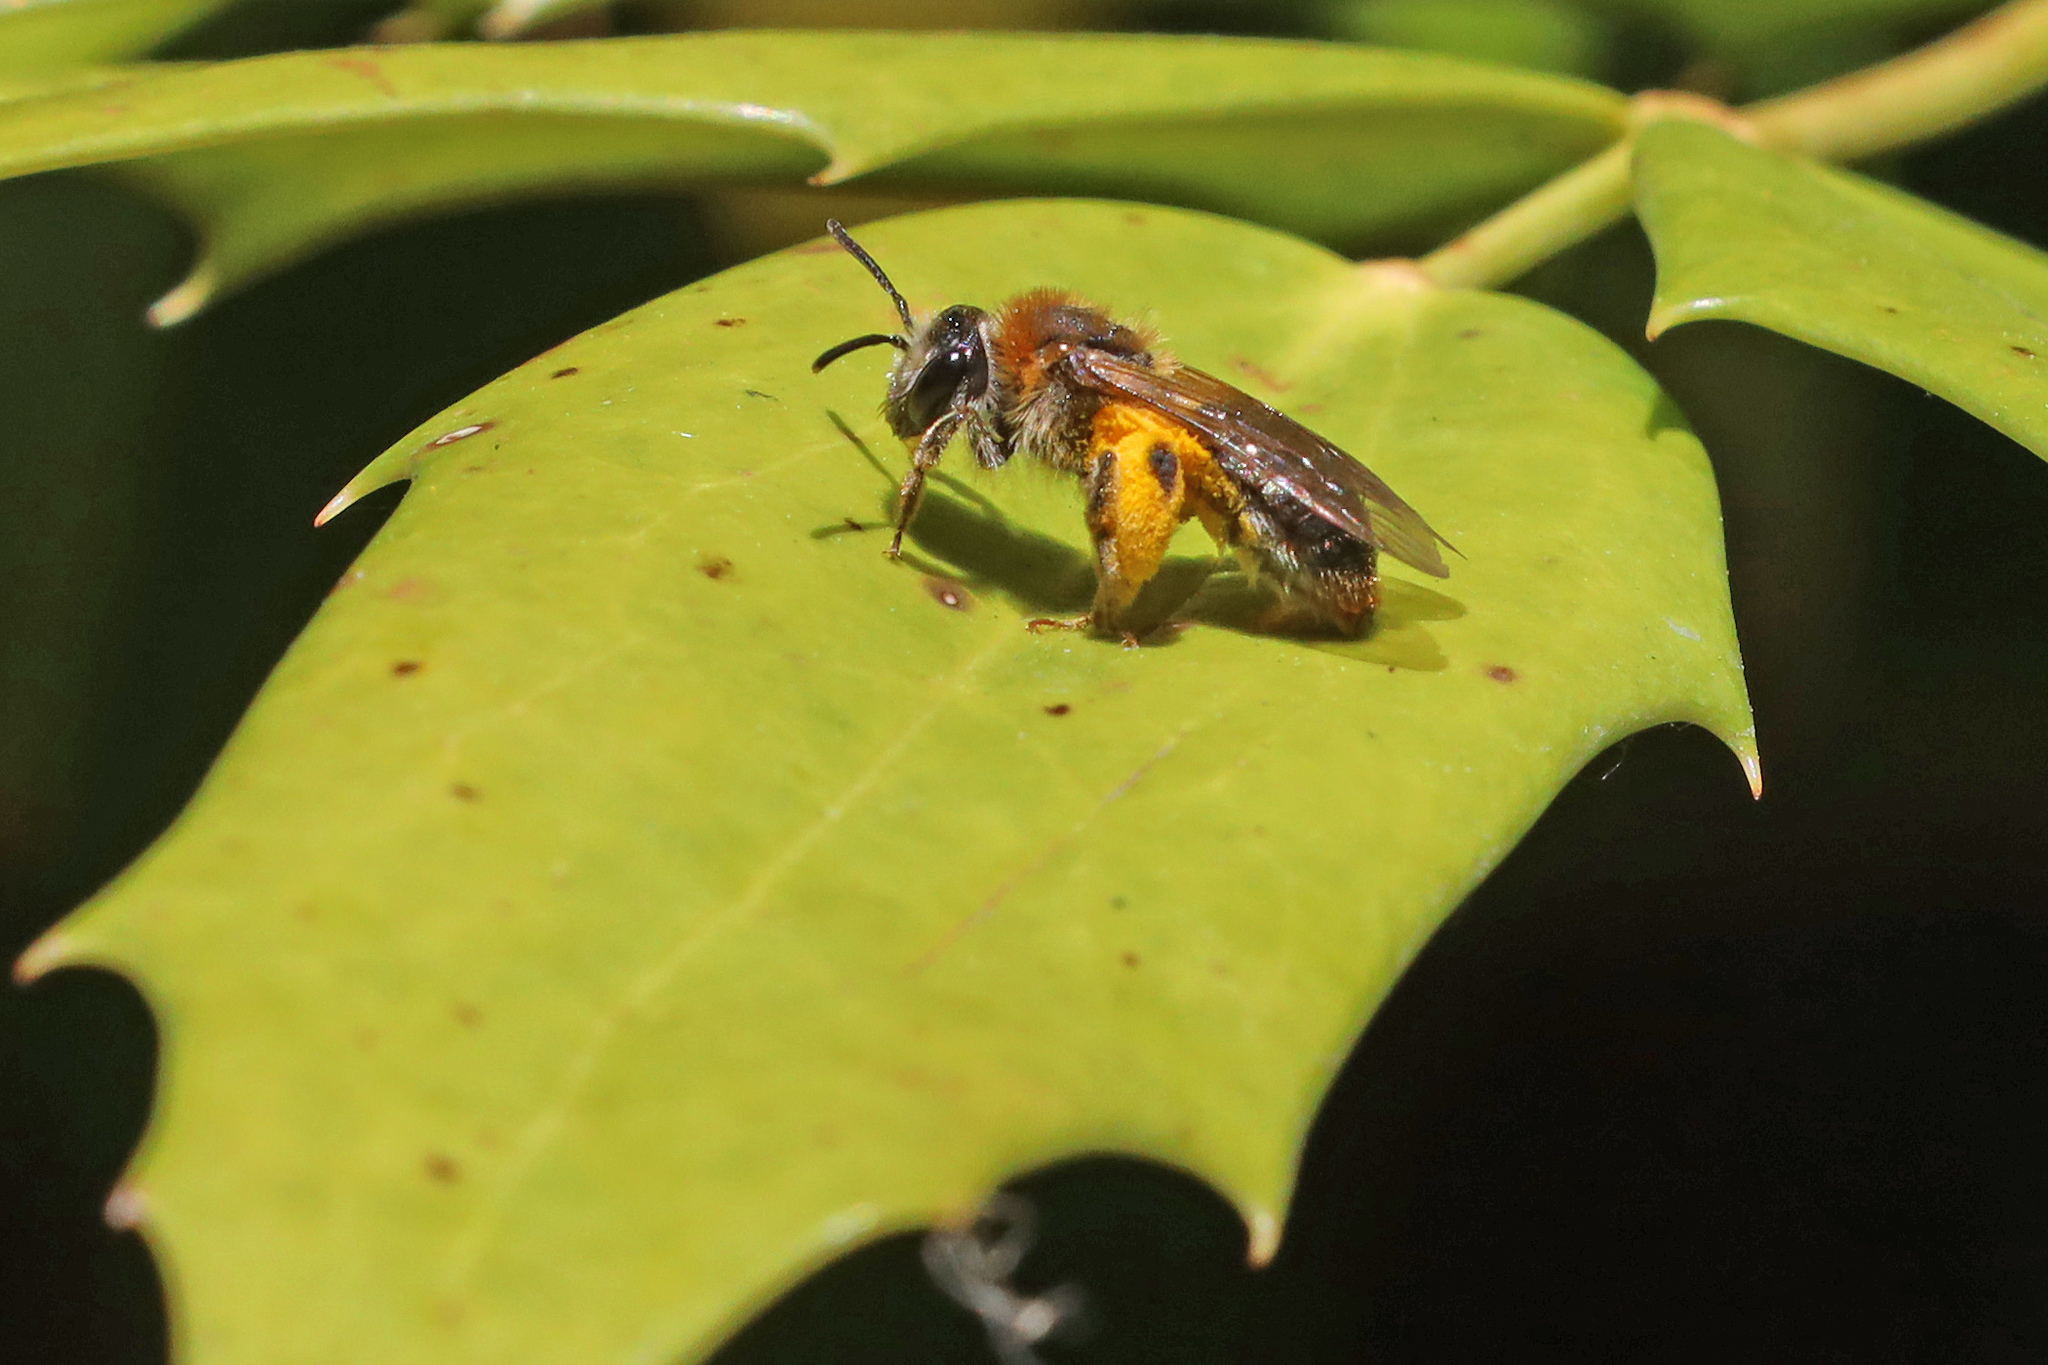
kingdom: Animalia
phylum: Arthropoda
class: Insecta
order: Hymenoptera
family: Andrenidae
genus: Andrena
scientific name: Andrena haemorrhoa
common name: Early mining bee
